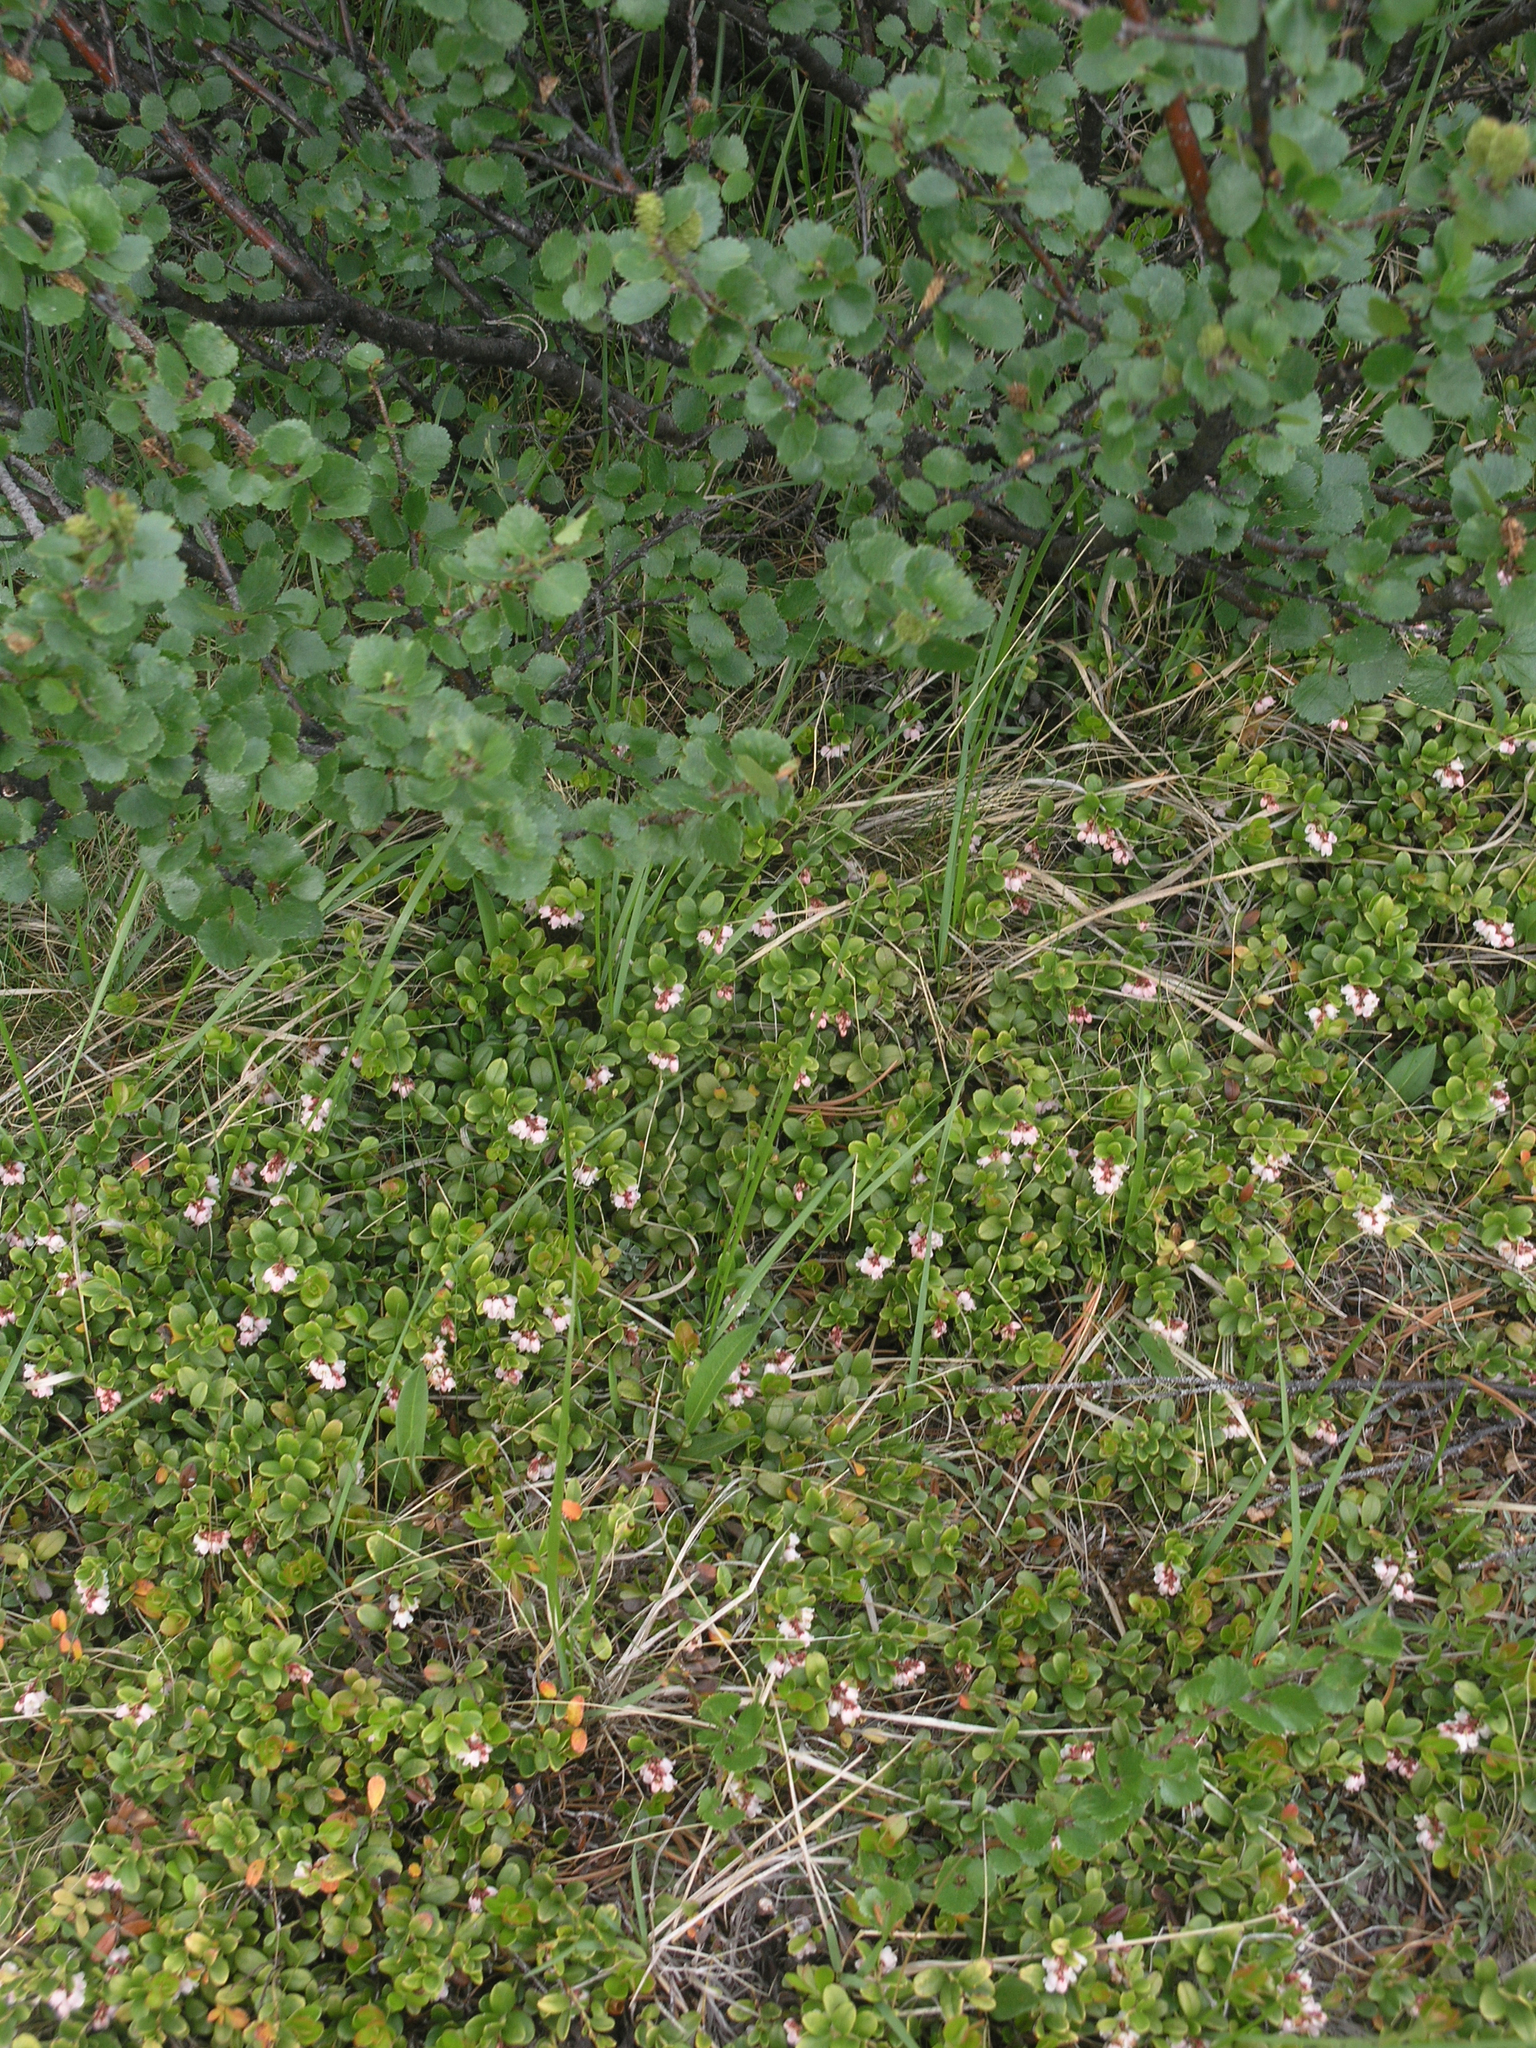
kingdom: Plantae
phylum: Tracheophyta
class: Magnoliopsida
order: Ericales
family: Ericaceae
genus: Vaccinium
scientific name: Vaccinium vitis-idaea
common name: Cowberry
